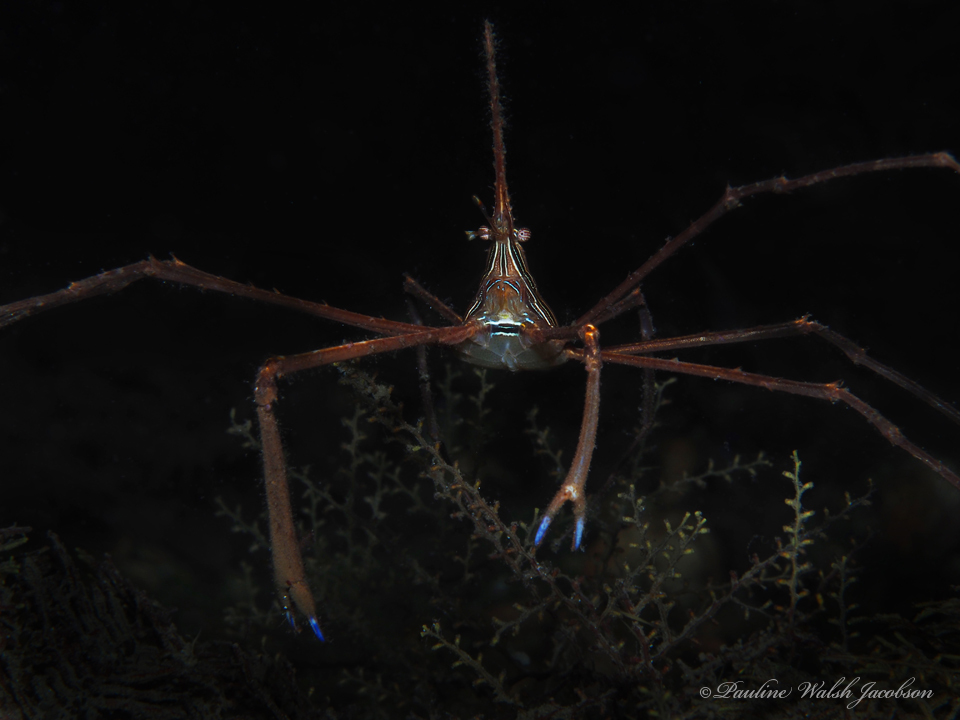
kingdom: Animalia
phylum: Arthropoda
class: Malacostraca
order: Decapoda
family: Inachoididae
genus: Stenorhynchus
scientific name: Stenorhynchus seticornis
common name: Arrow crab
